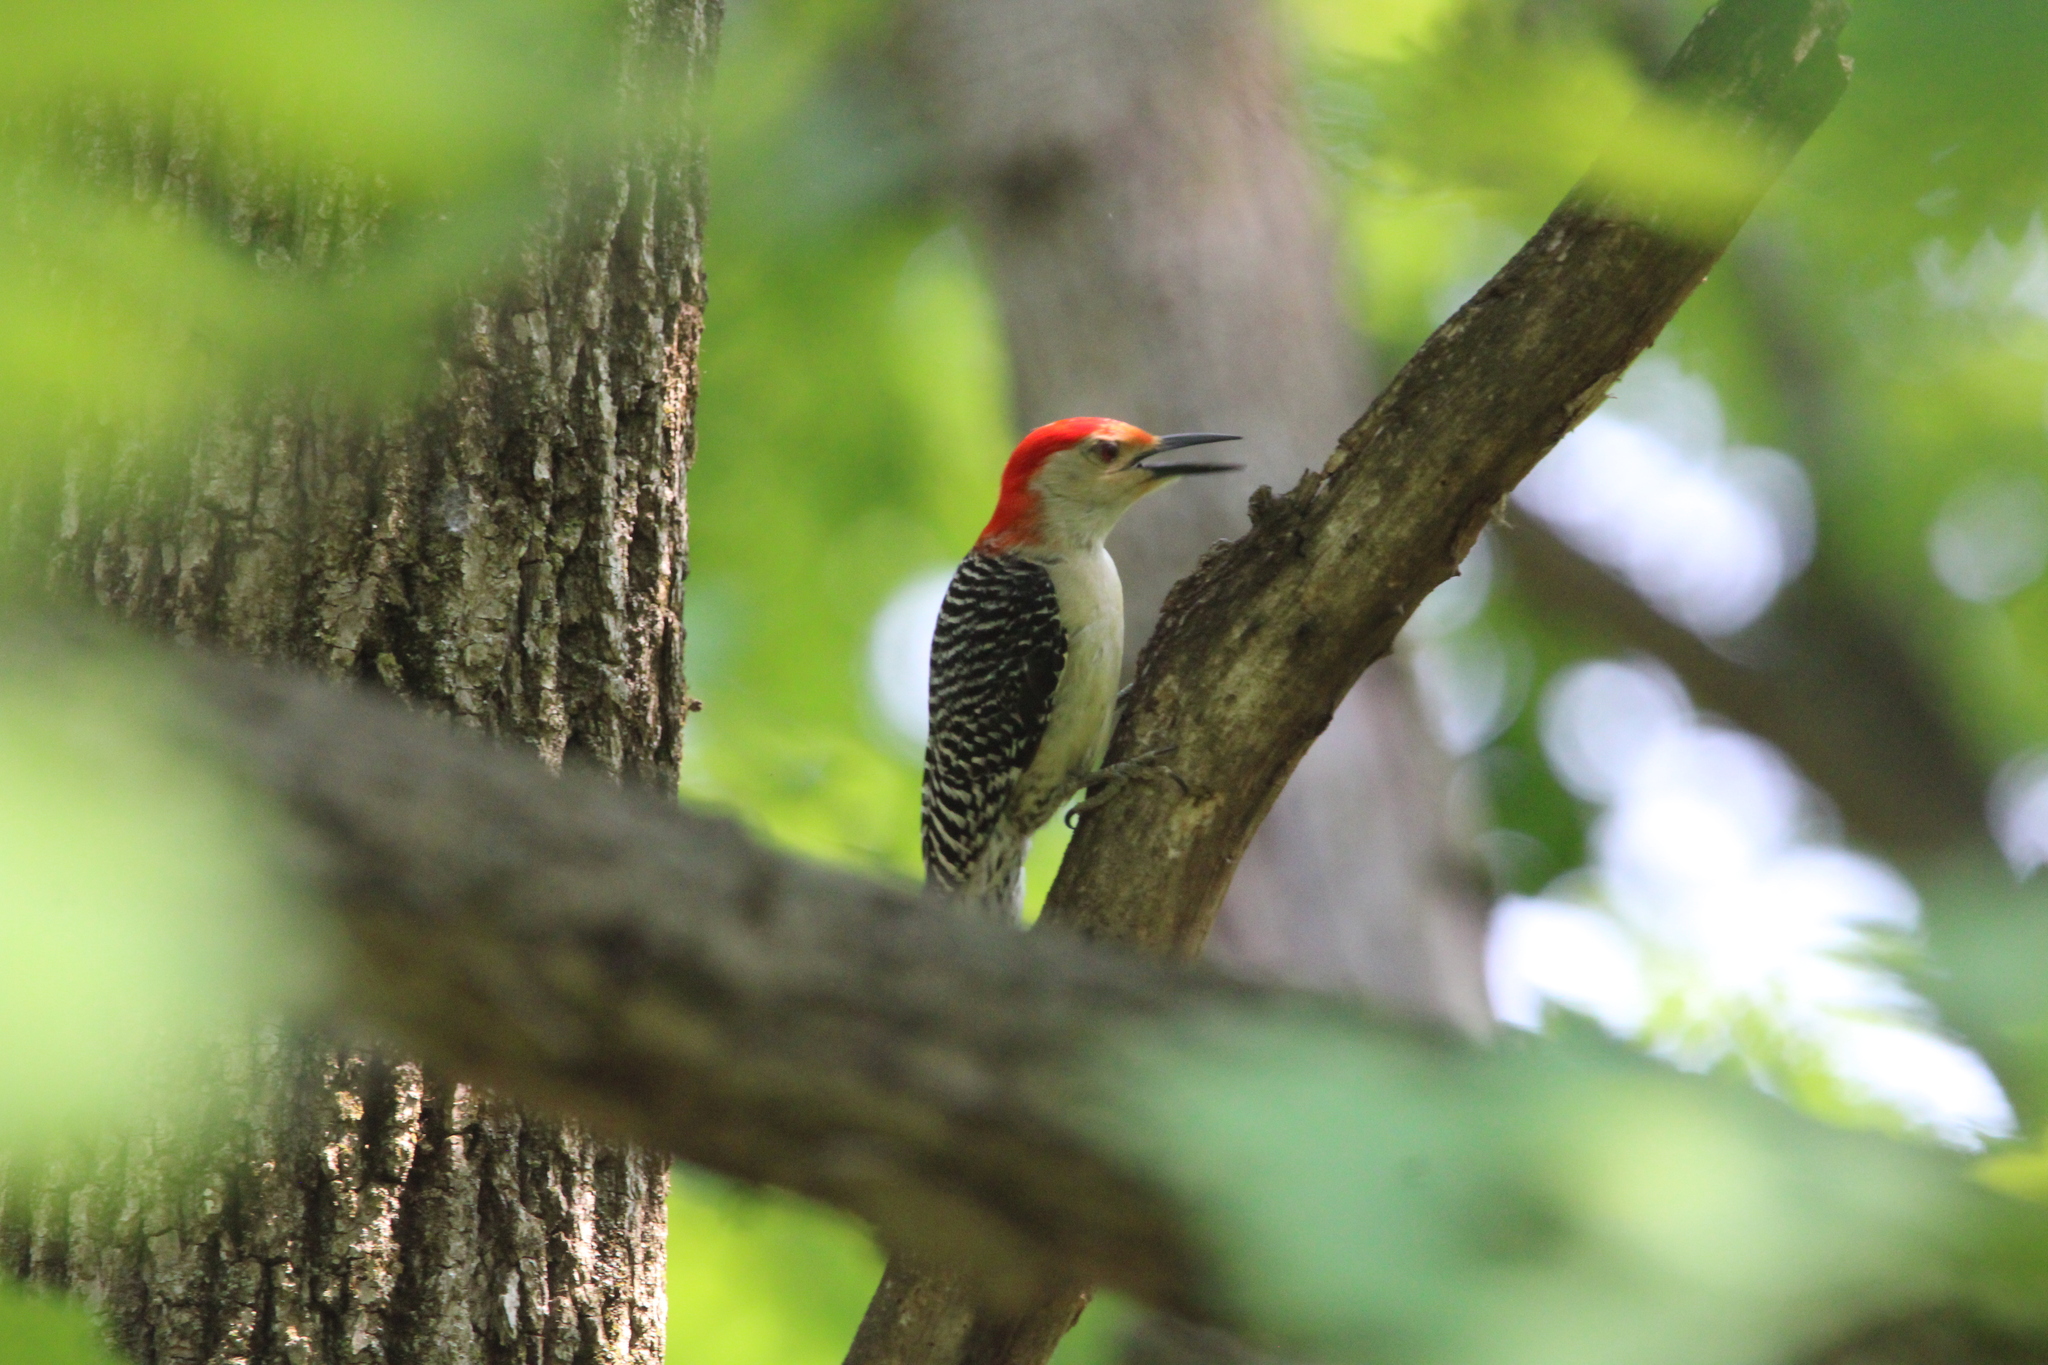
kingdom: Animalia
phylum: Chordata
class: Aves
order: Piciformes
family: Picidae
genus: Melanerpes
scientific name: Melanerpes carolinus
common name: Red-bellied woodpecker
